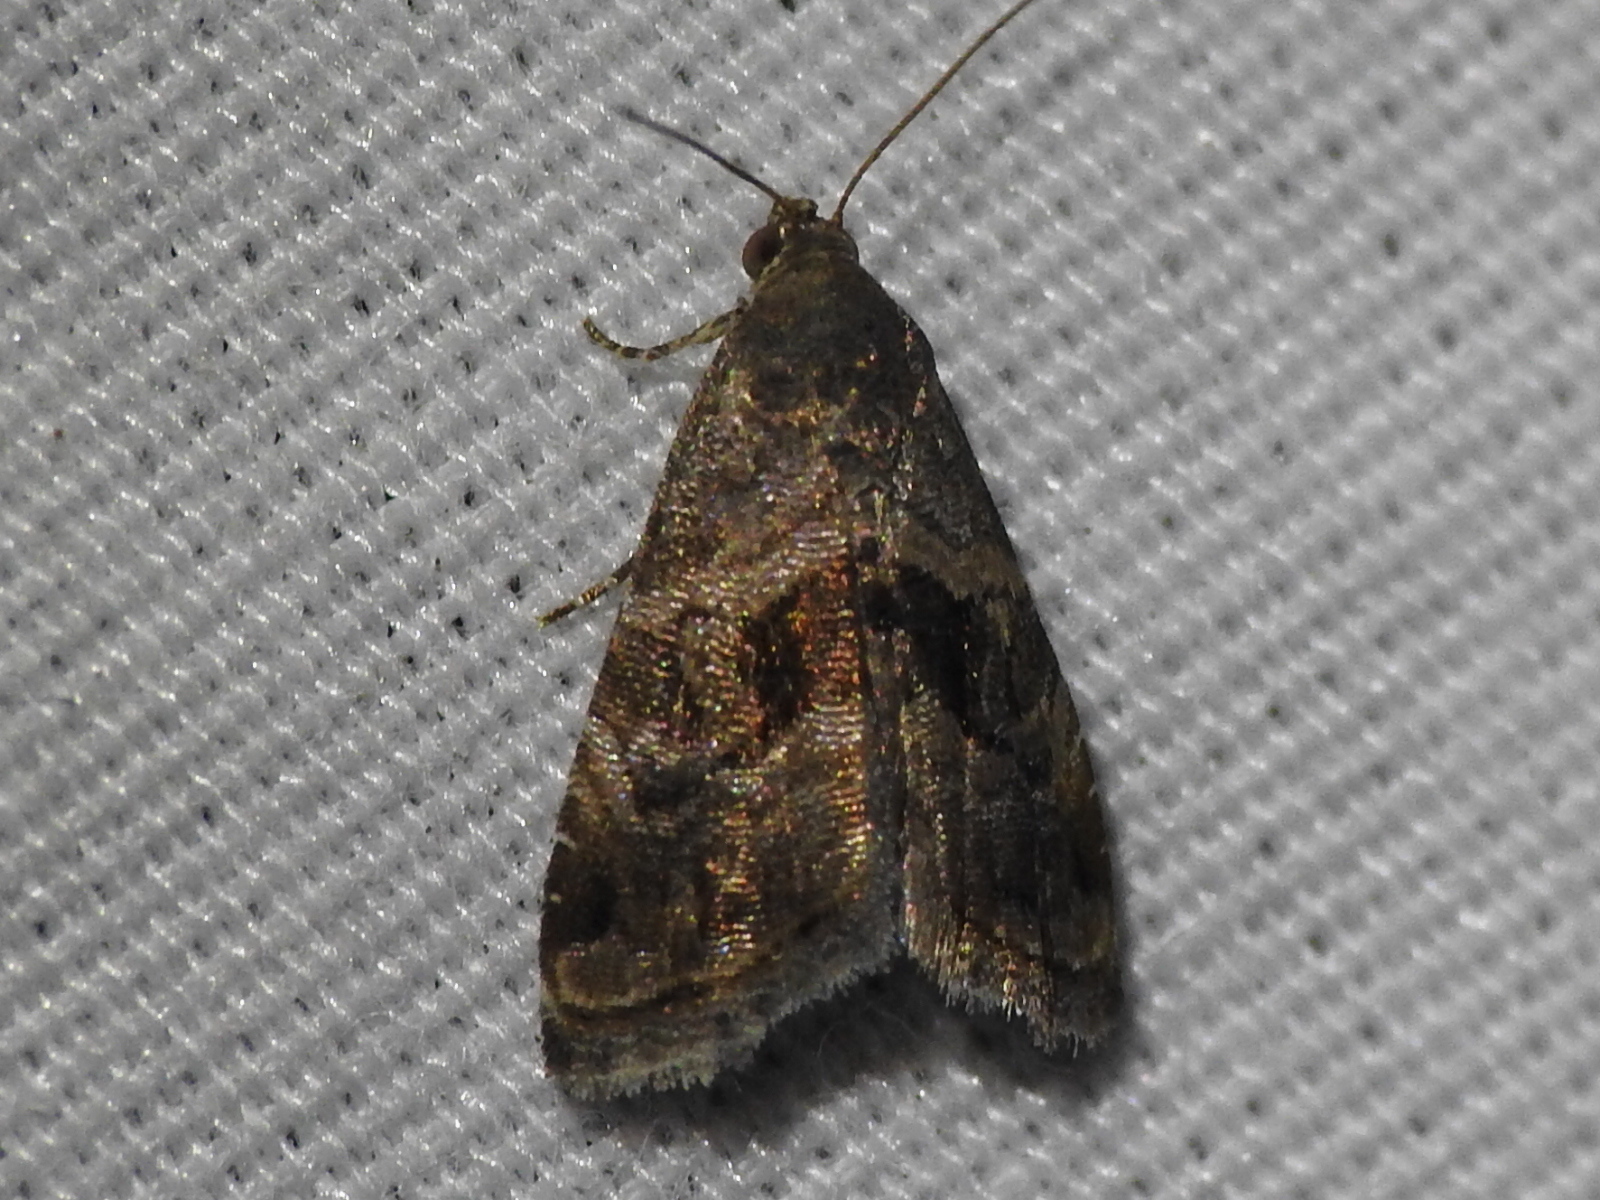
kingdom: Animalia
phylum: Arthropoda
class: Insecta
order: Lepidoptera
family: Noctuidae
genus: Tripudia
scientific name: Tripudia quadrifera
